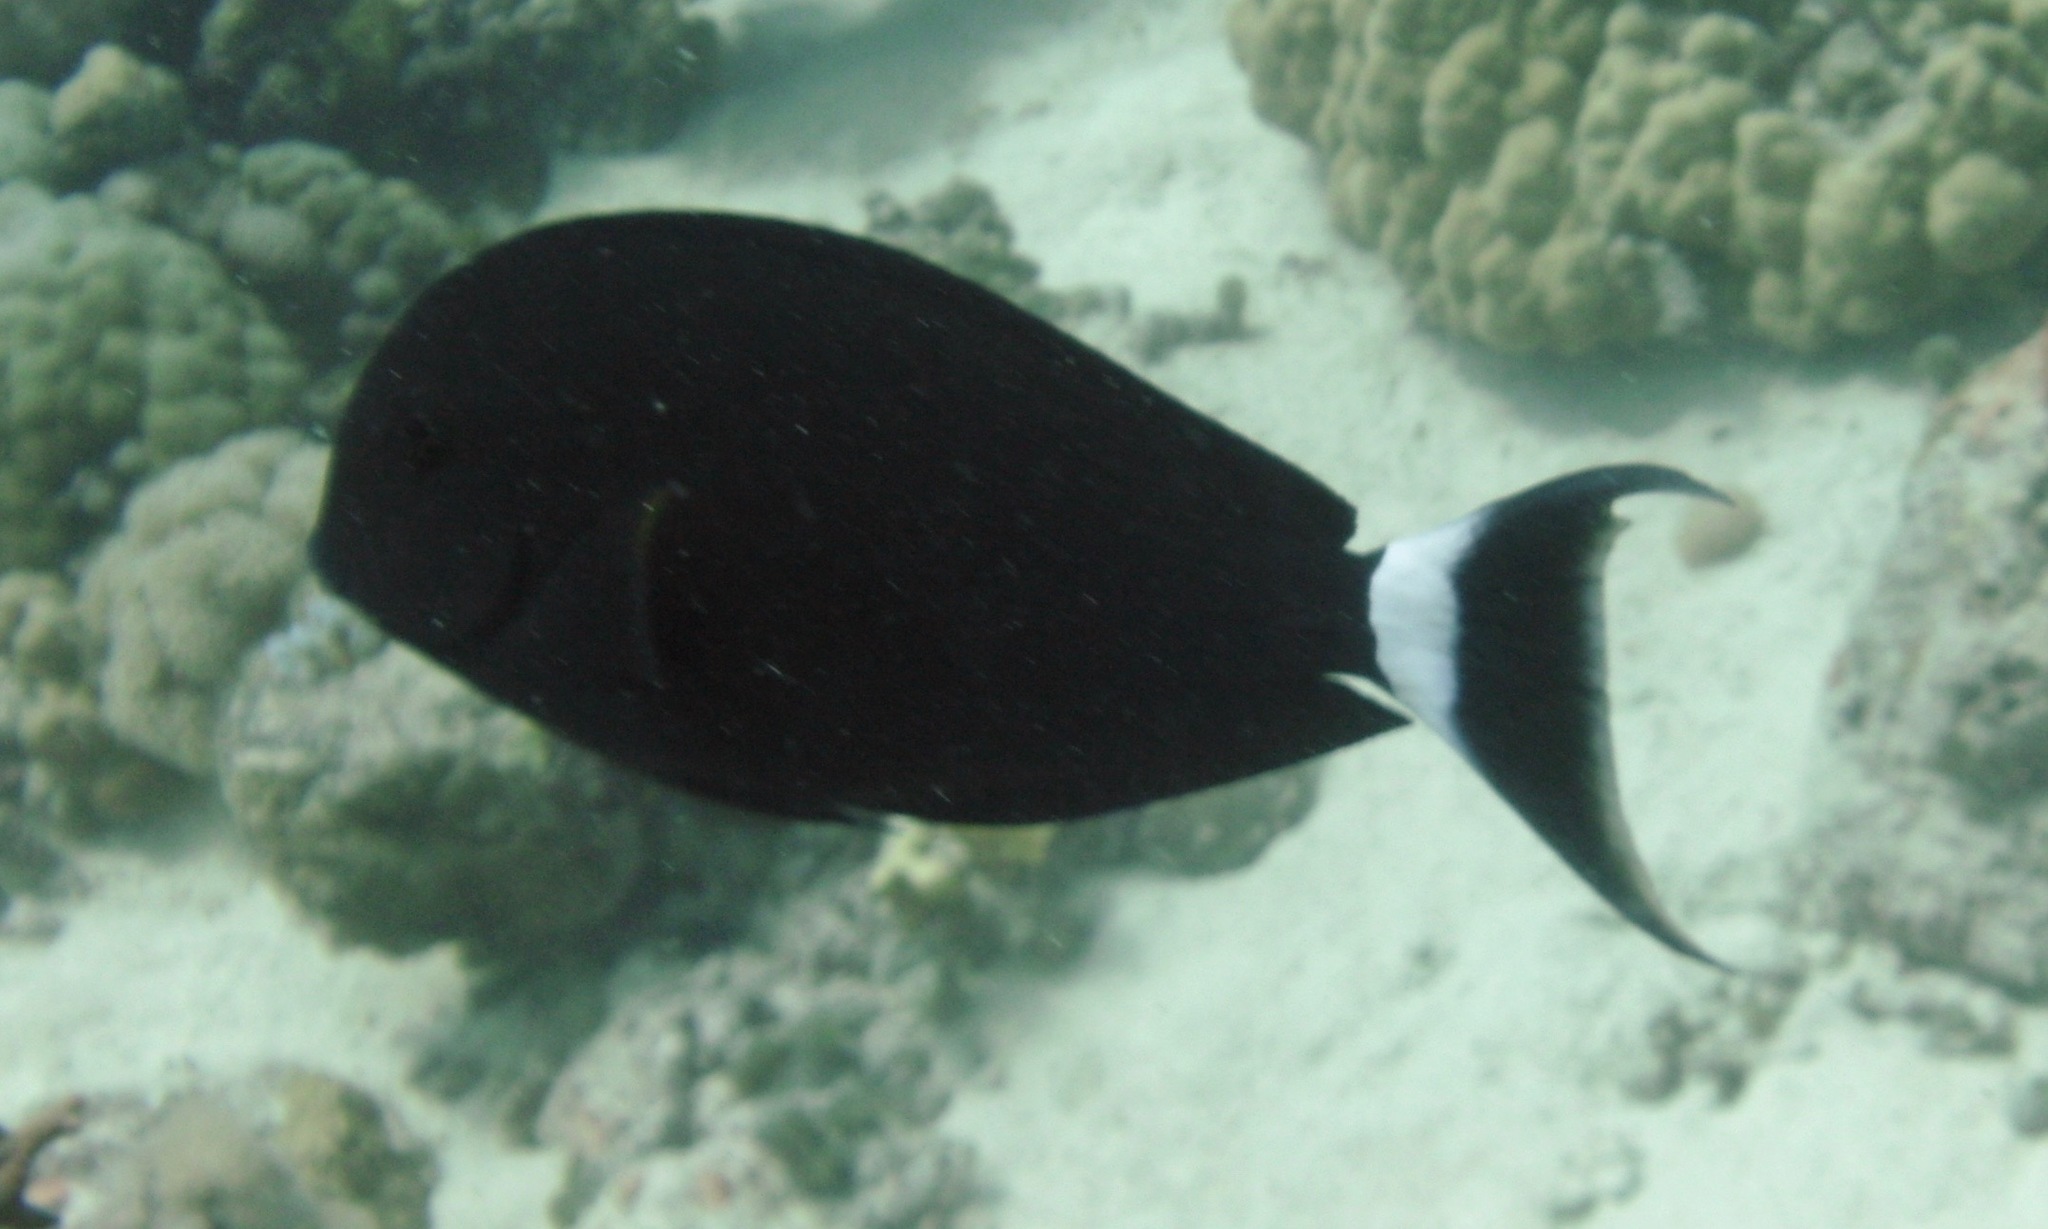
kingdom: Animalia
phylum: Chordata
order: Perciformes
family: Acanthuridae
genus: Acanthurus
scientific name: Acanthurus gahhm
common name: Black surgeonfish
